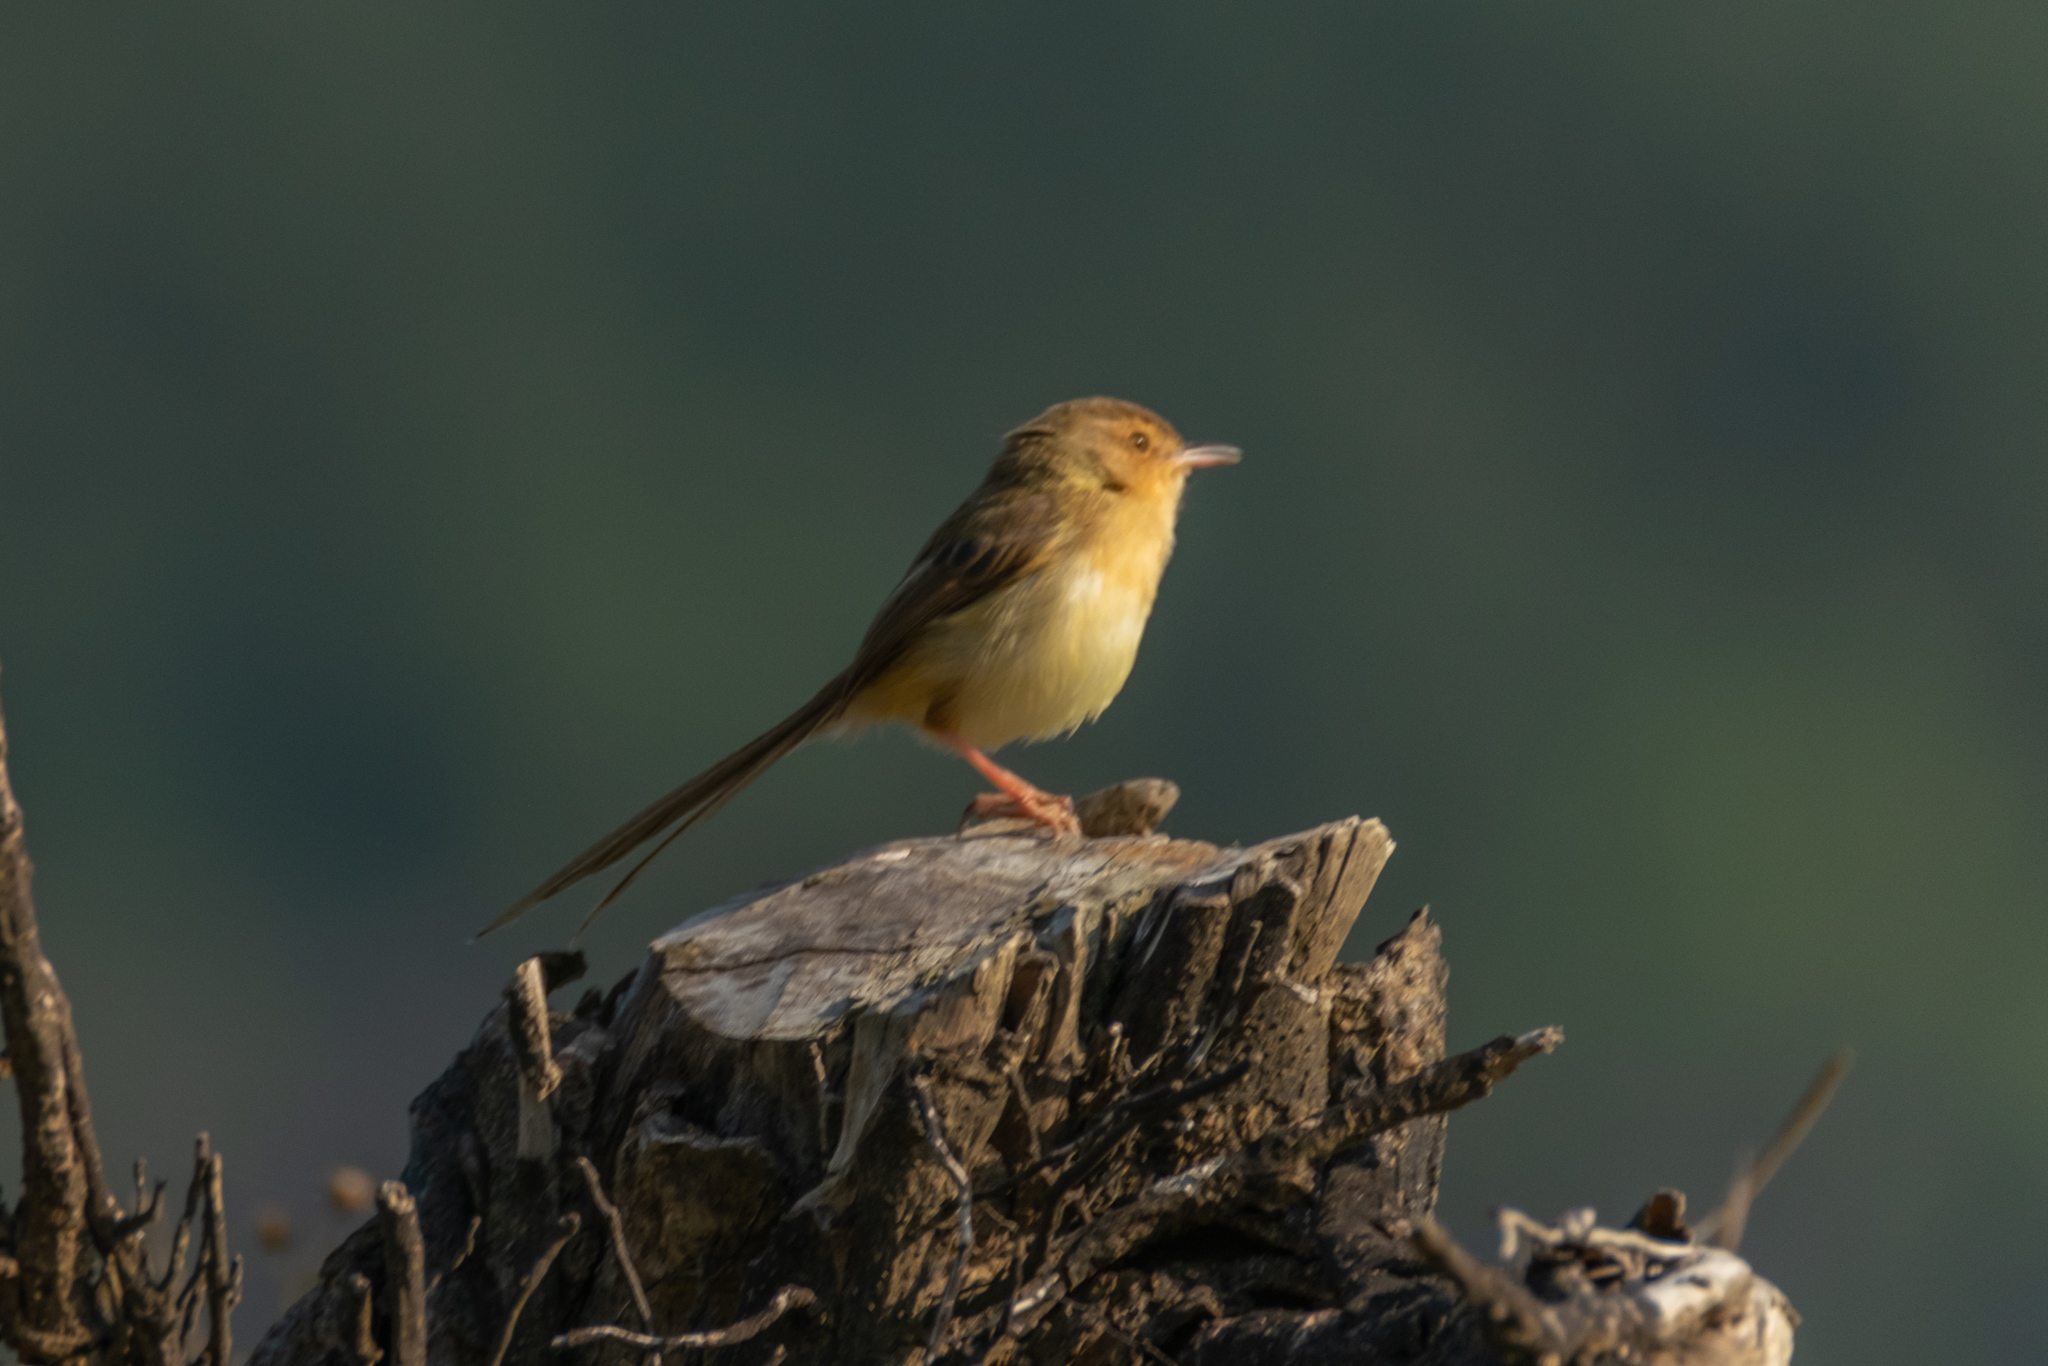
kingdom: Animalia
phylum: Chordata
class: Aves
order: Passeriformes
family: Cisticolidae
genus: Prinia
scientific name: Prinia inornata
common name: Plain prinia
